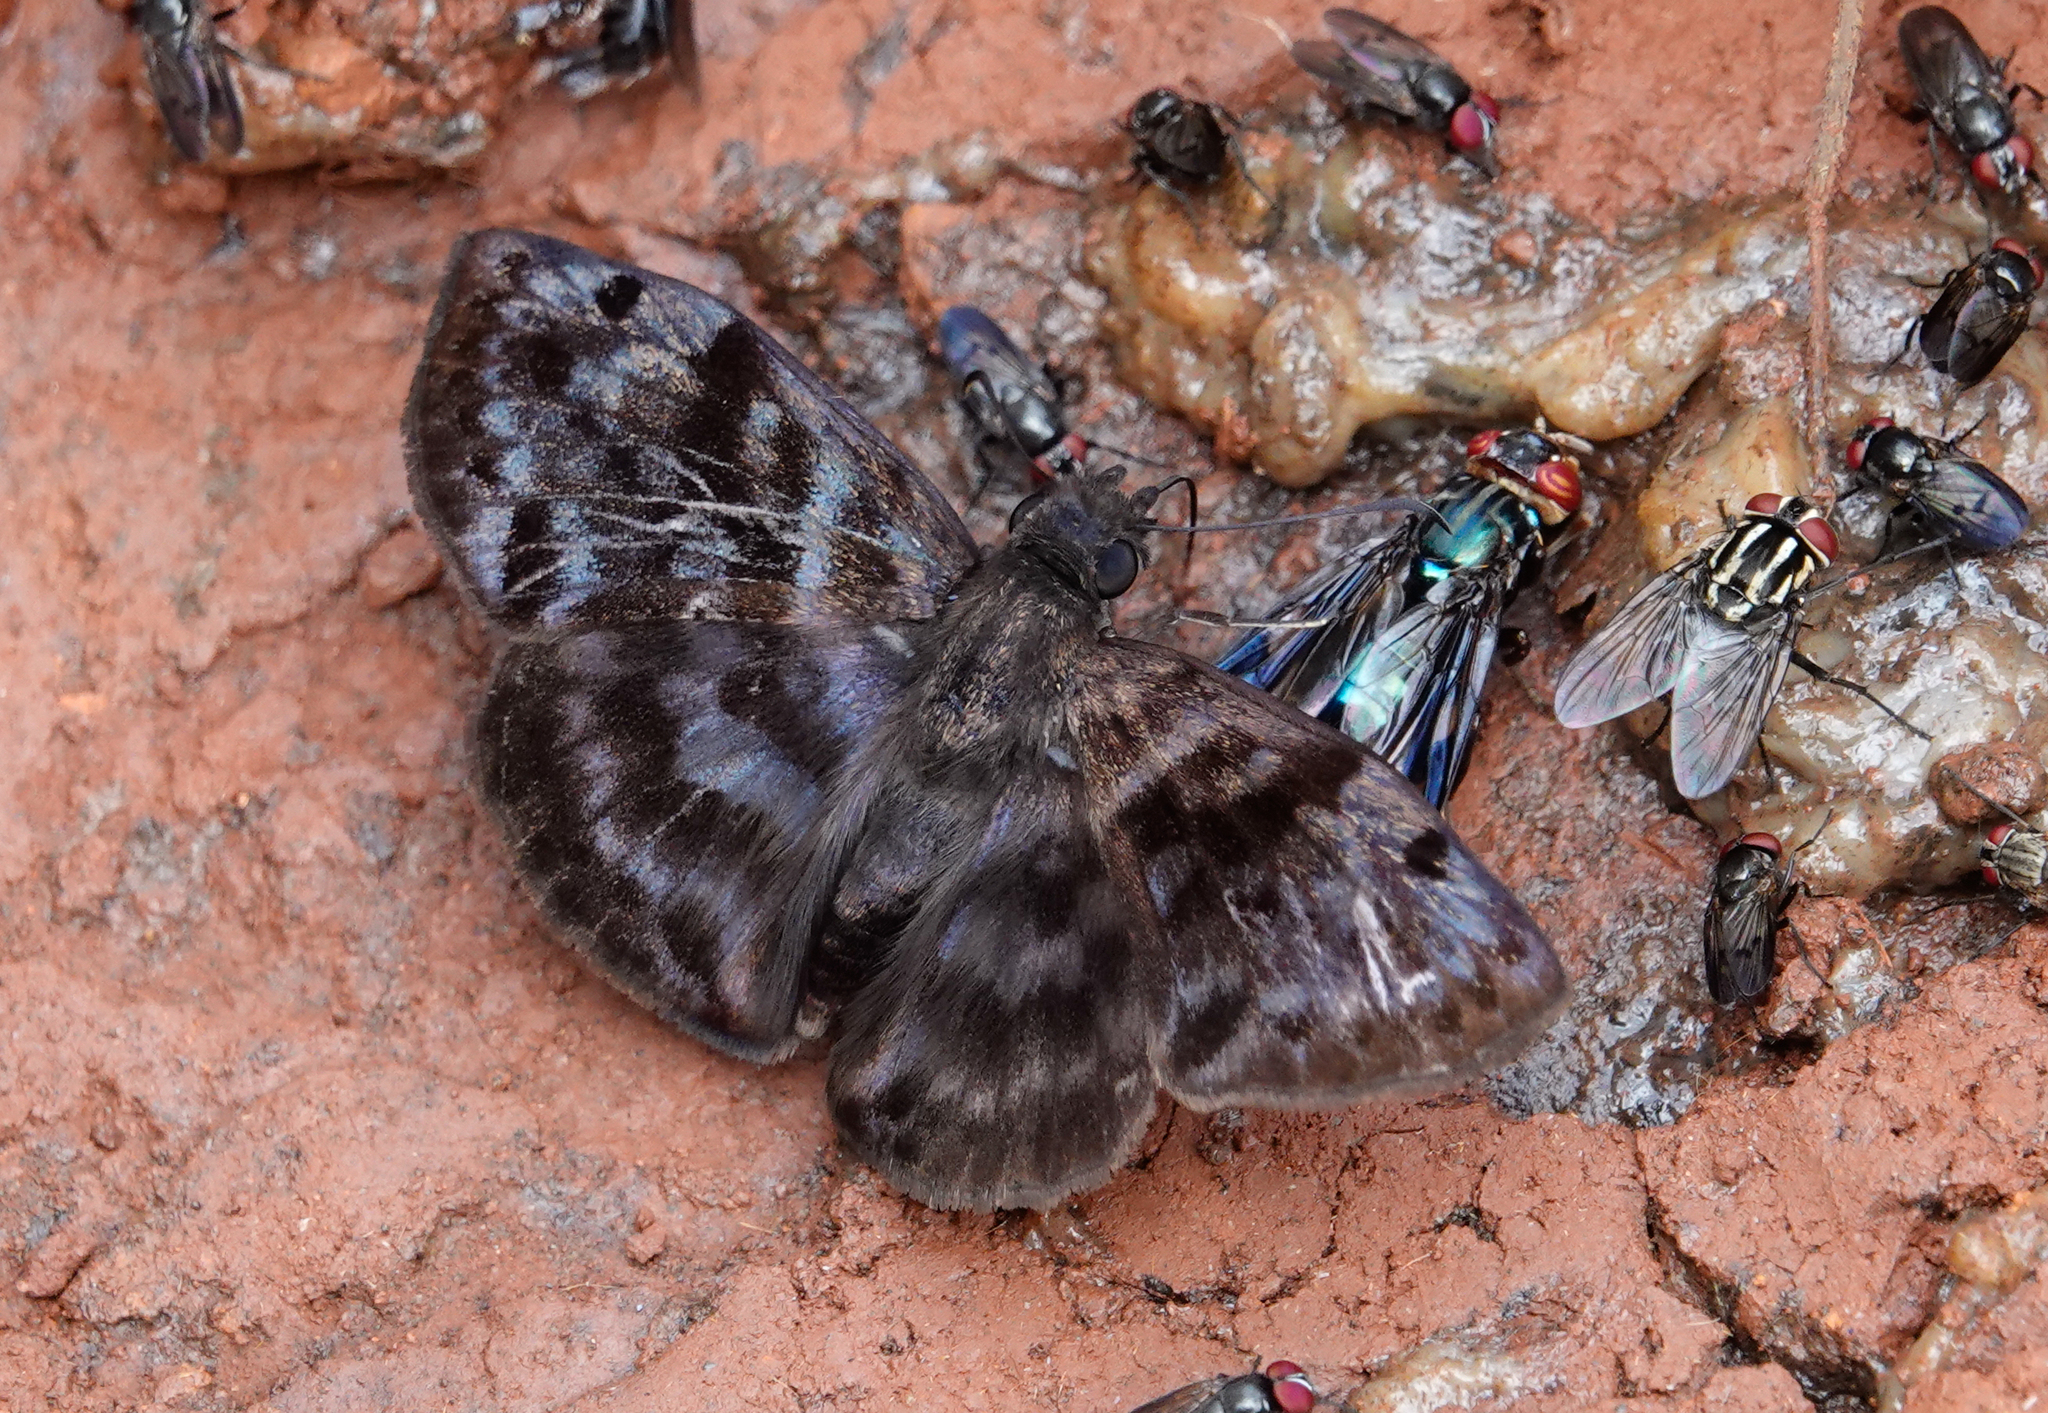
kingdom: Animalia
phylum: Arthropoda
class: Insecta
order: Lepidoptera
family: Hesperiidae
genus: Ebrietas
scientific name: Ebrietas anacreon
